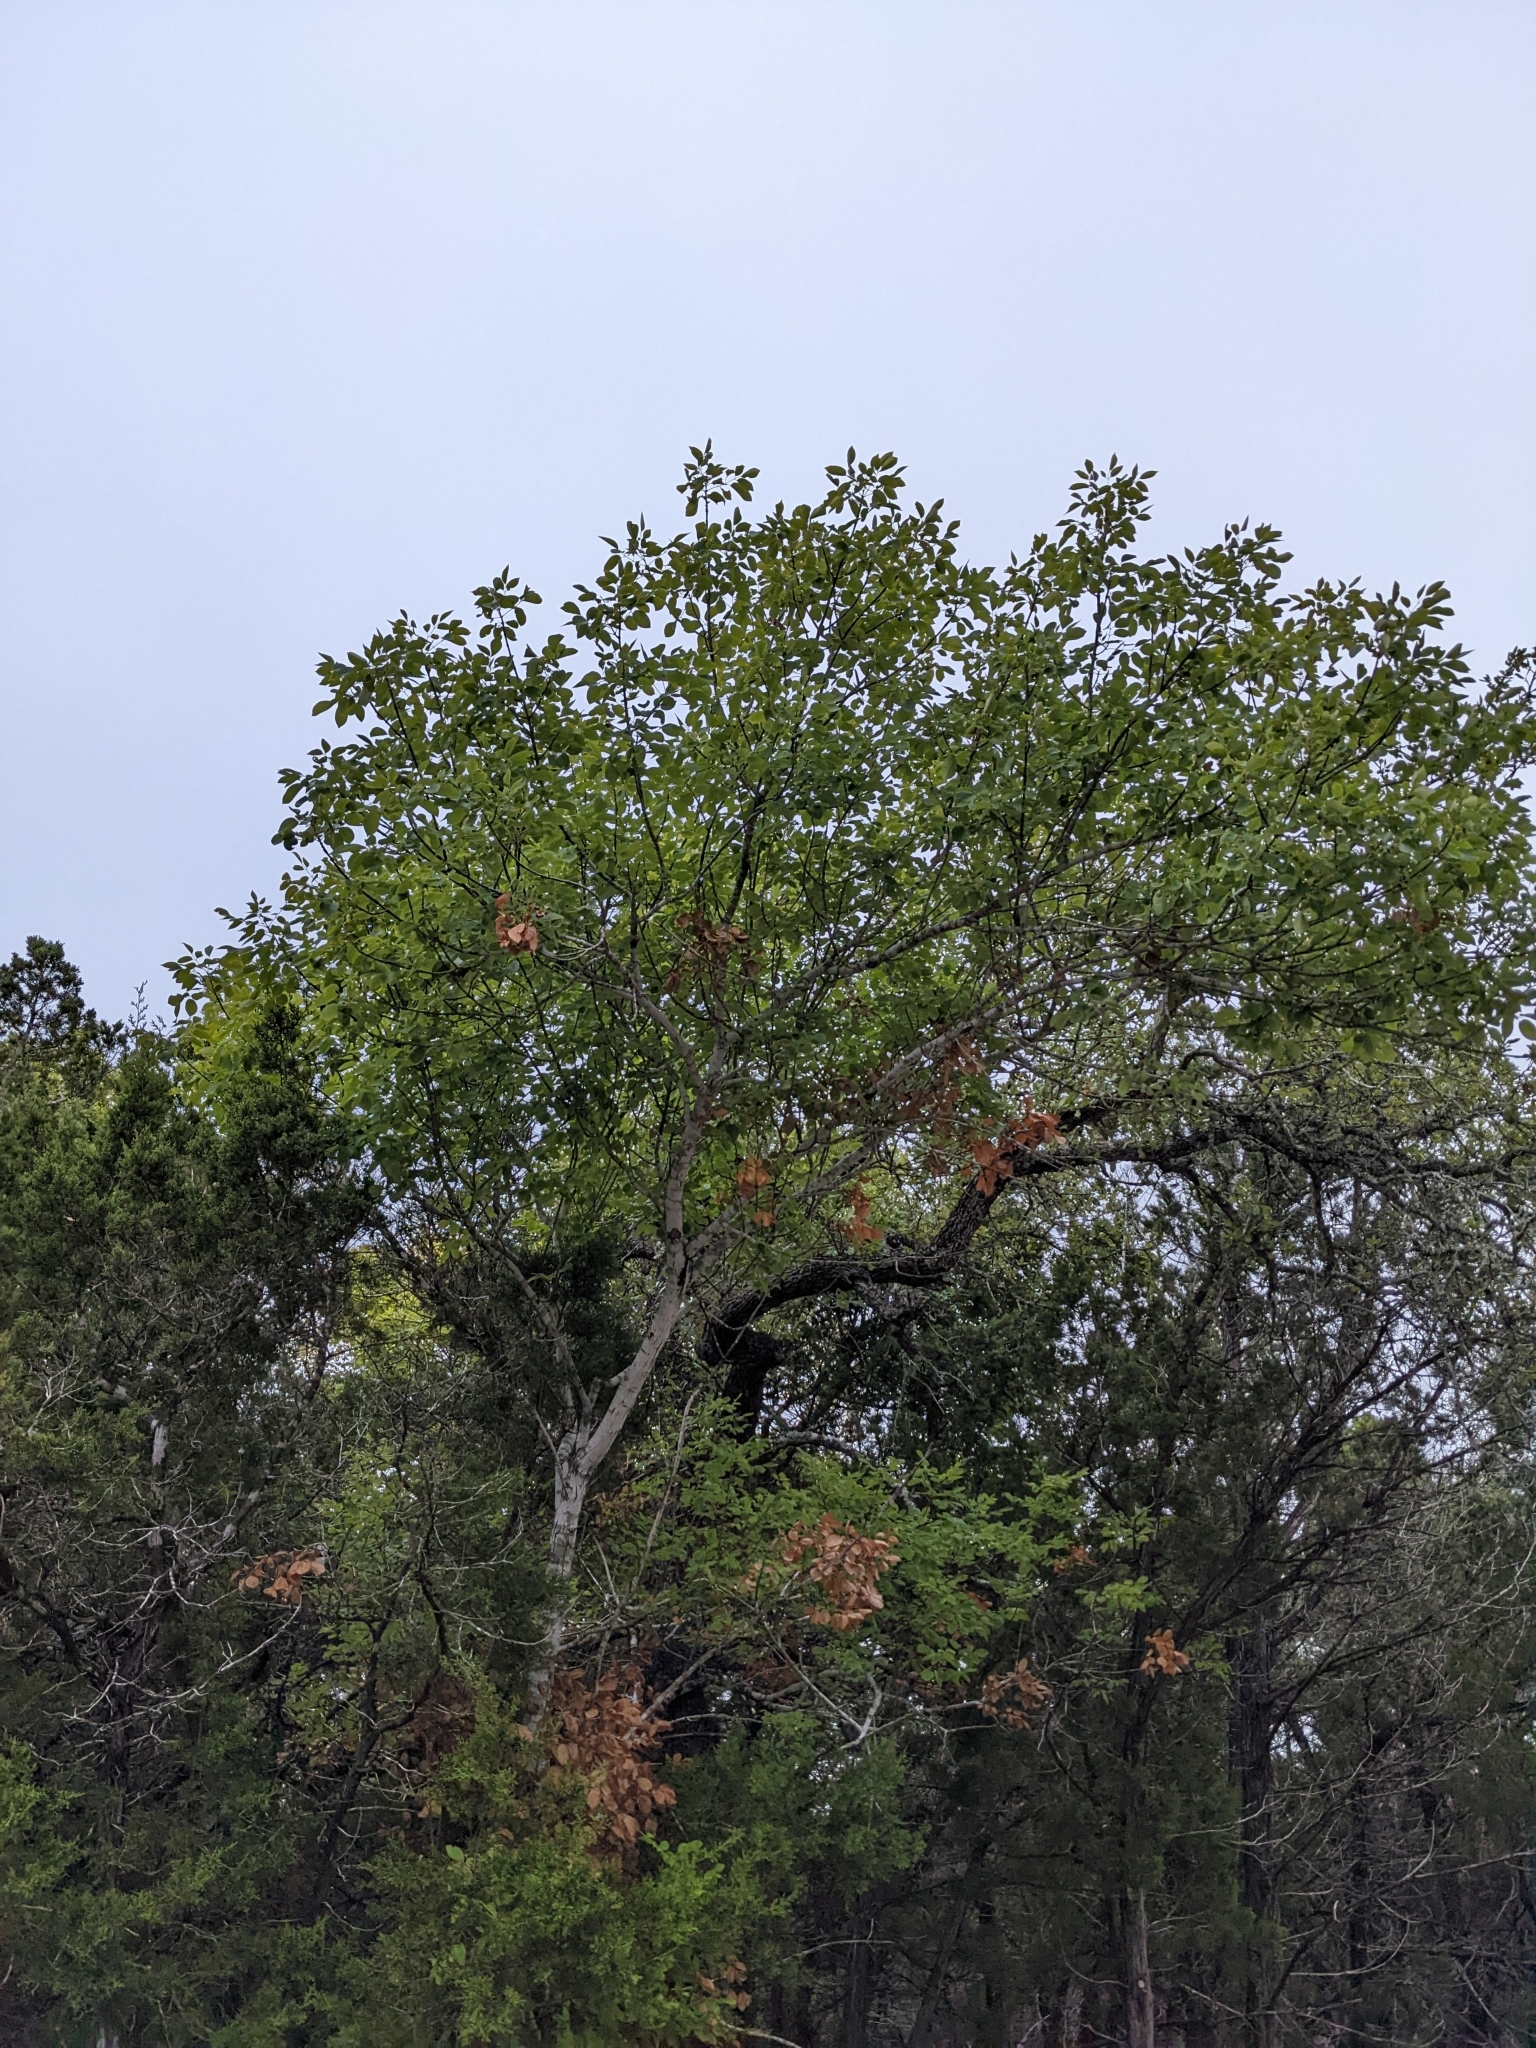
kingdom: Plantae
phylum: Tracheophyta
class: Magnoliopsida
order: Lamiales
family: Oleaceae
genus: Fraxinus
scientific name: Fraxinus albicans
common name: Texas ash
